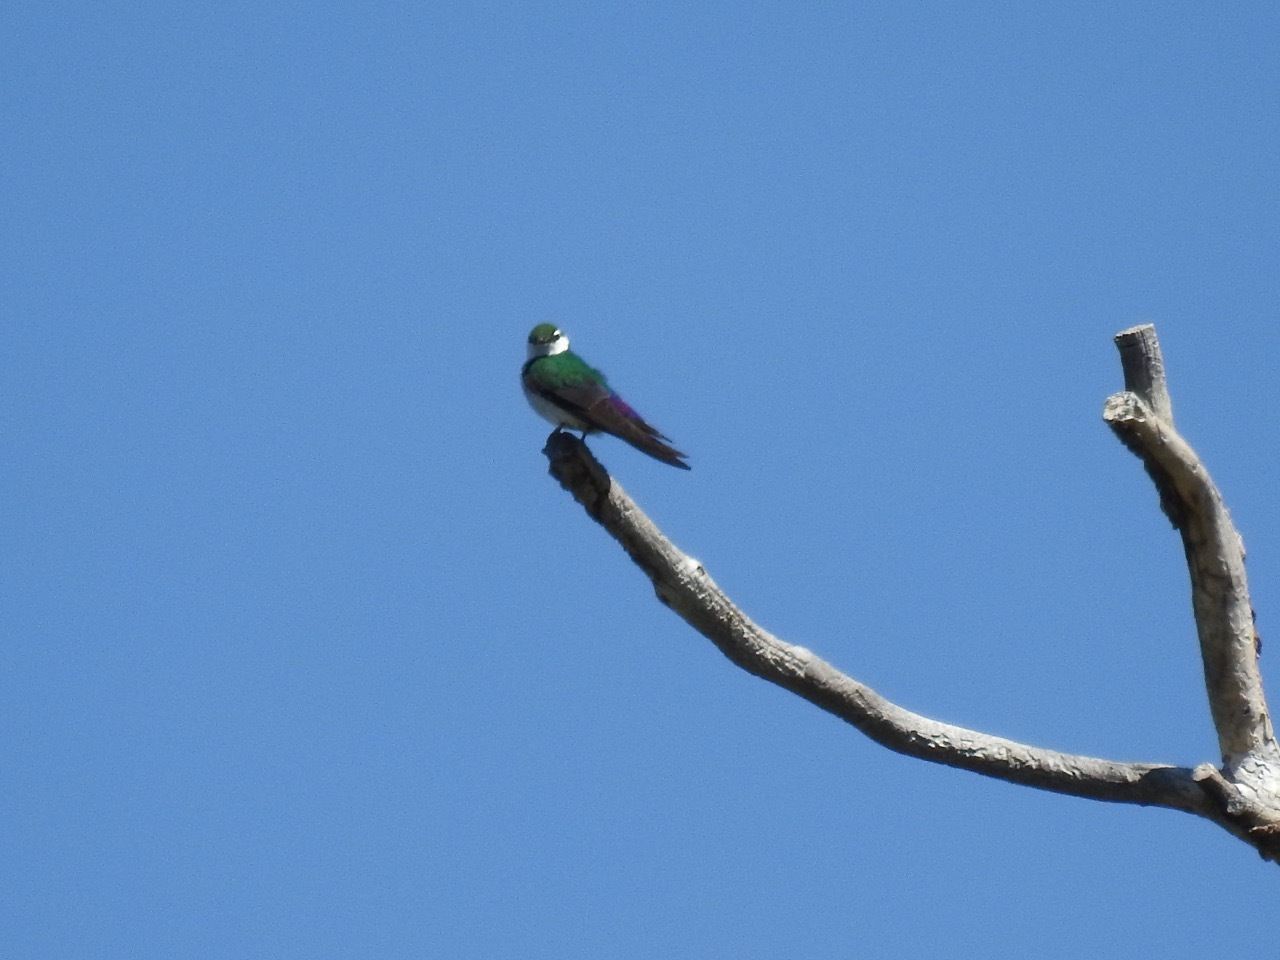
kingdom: Animalia
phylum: Chordata
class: Aves
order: Passeriformes
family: Hirundinidae
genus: Tachycineta
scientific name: Tachycineta thalassina
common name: Violet-green swallow
